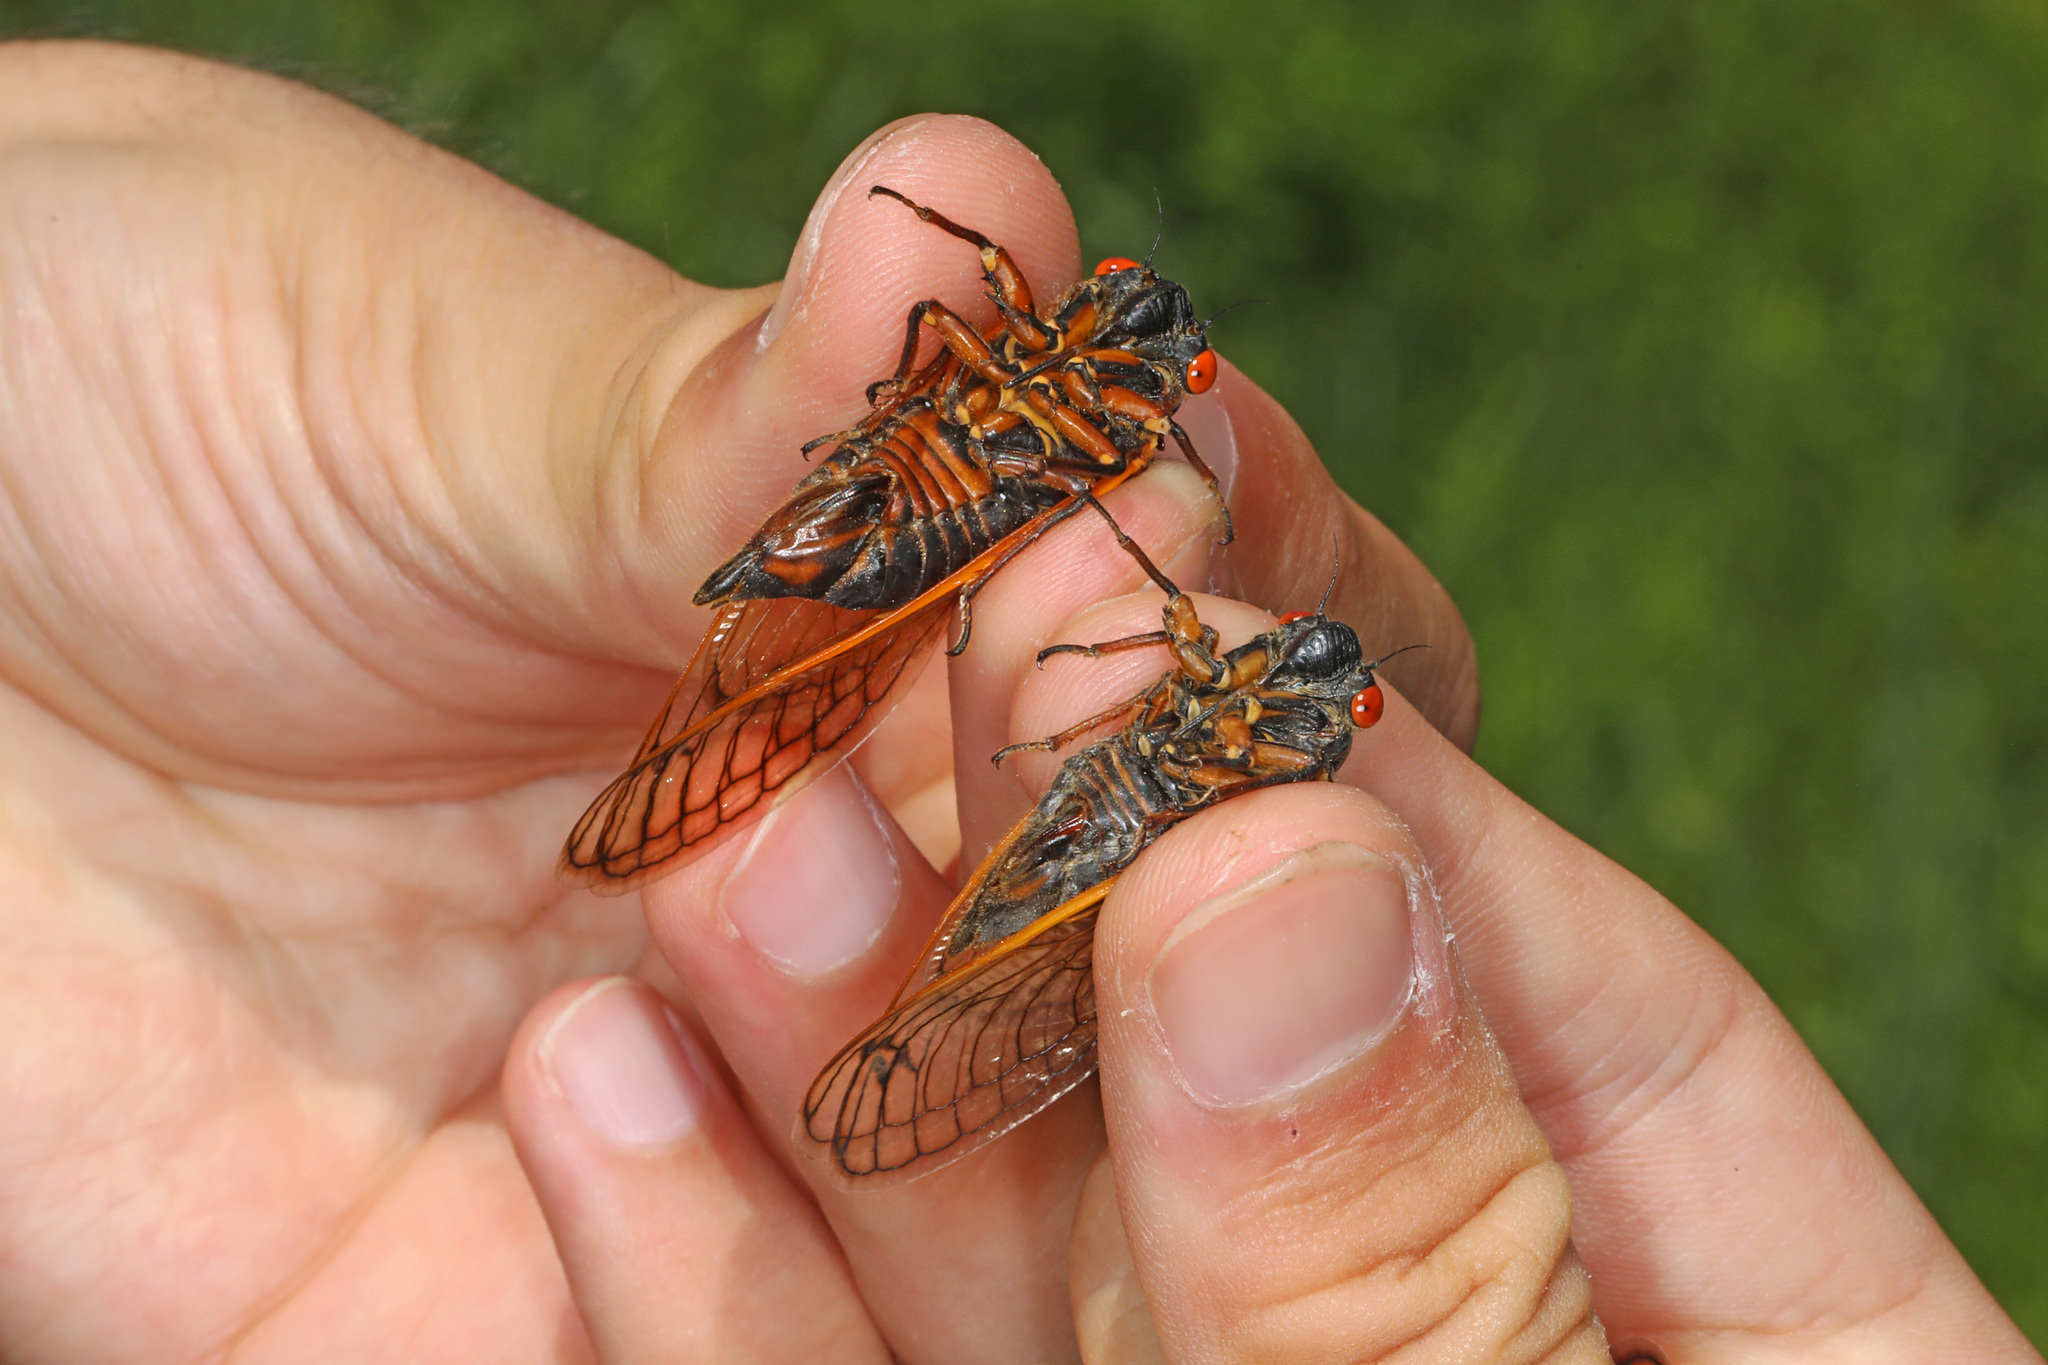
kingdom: Animalia
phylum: Arthropoda
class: Insecta
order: Hemiptera
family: Cicadidae
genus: Magicicada
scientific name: Magicicada septendecula
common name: Decula periodical cicada
